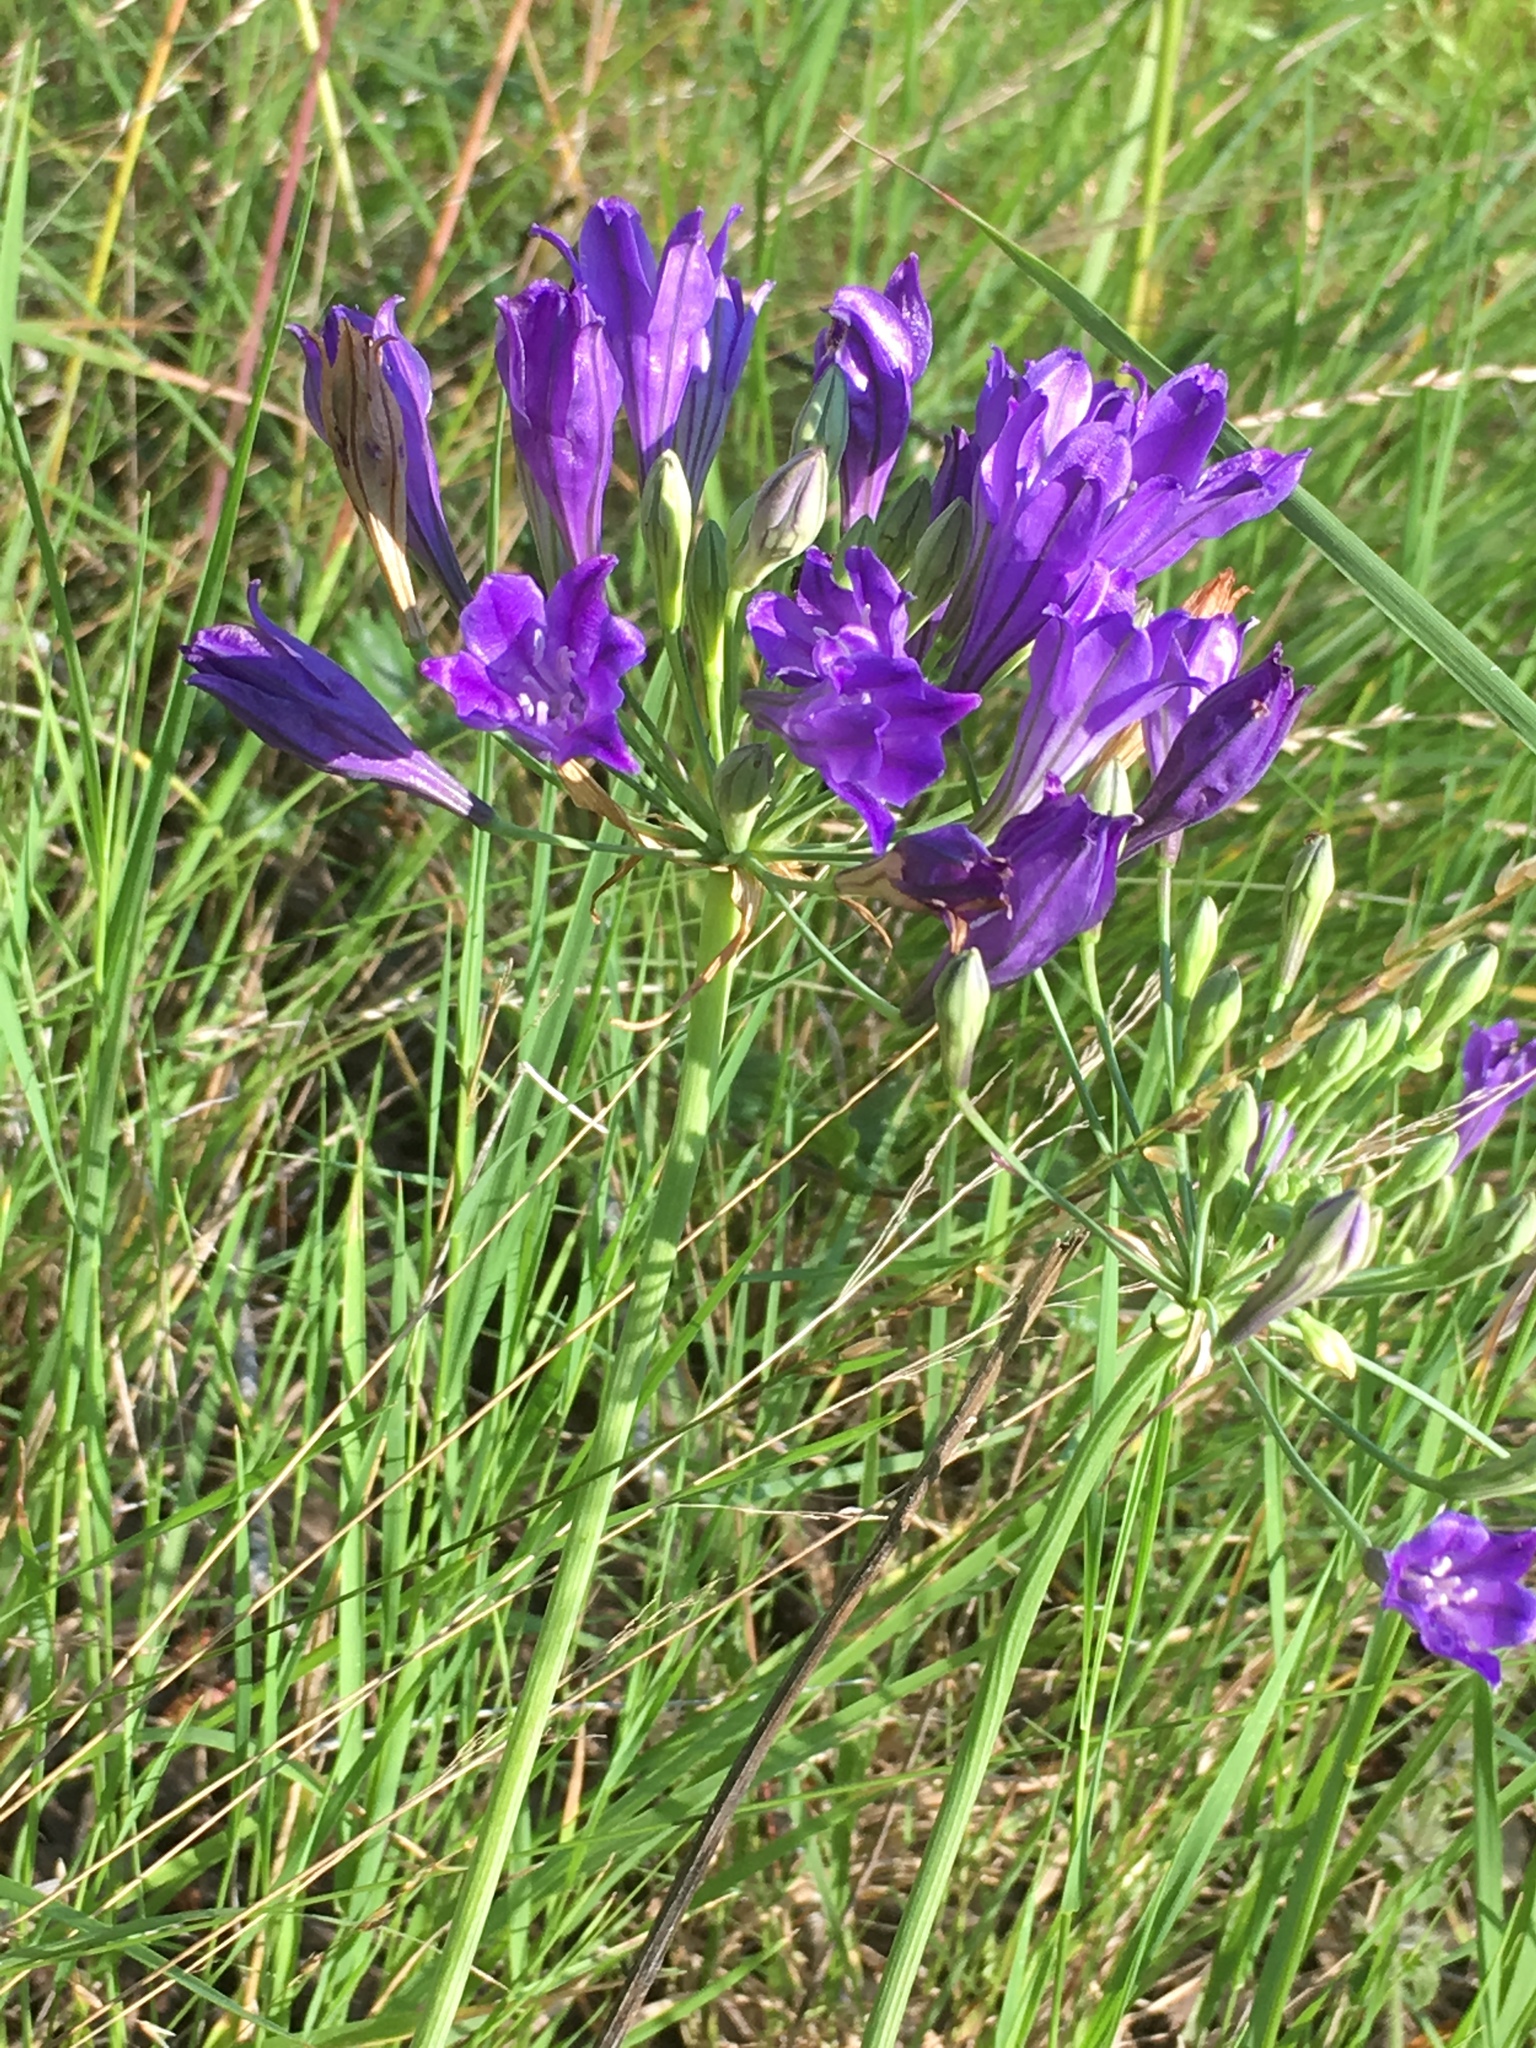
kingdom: Plantae
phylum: Tracheophyta
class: Liliopsida
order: Asparagales
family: Asparagaceae
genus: Triteleia
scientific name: Triteleia laxa
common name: Triplet-lily
